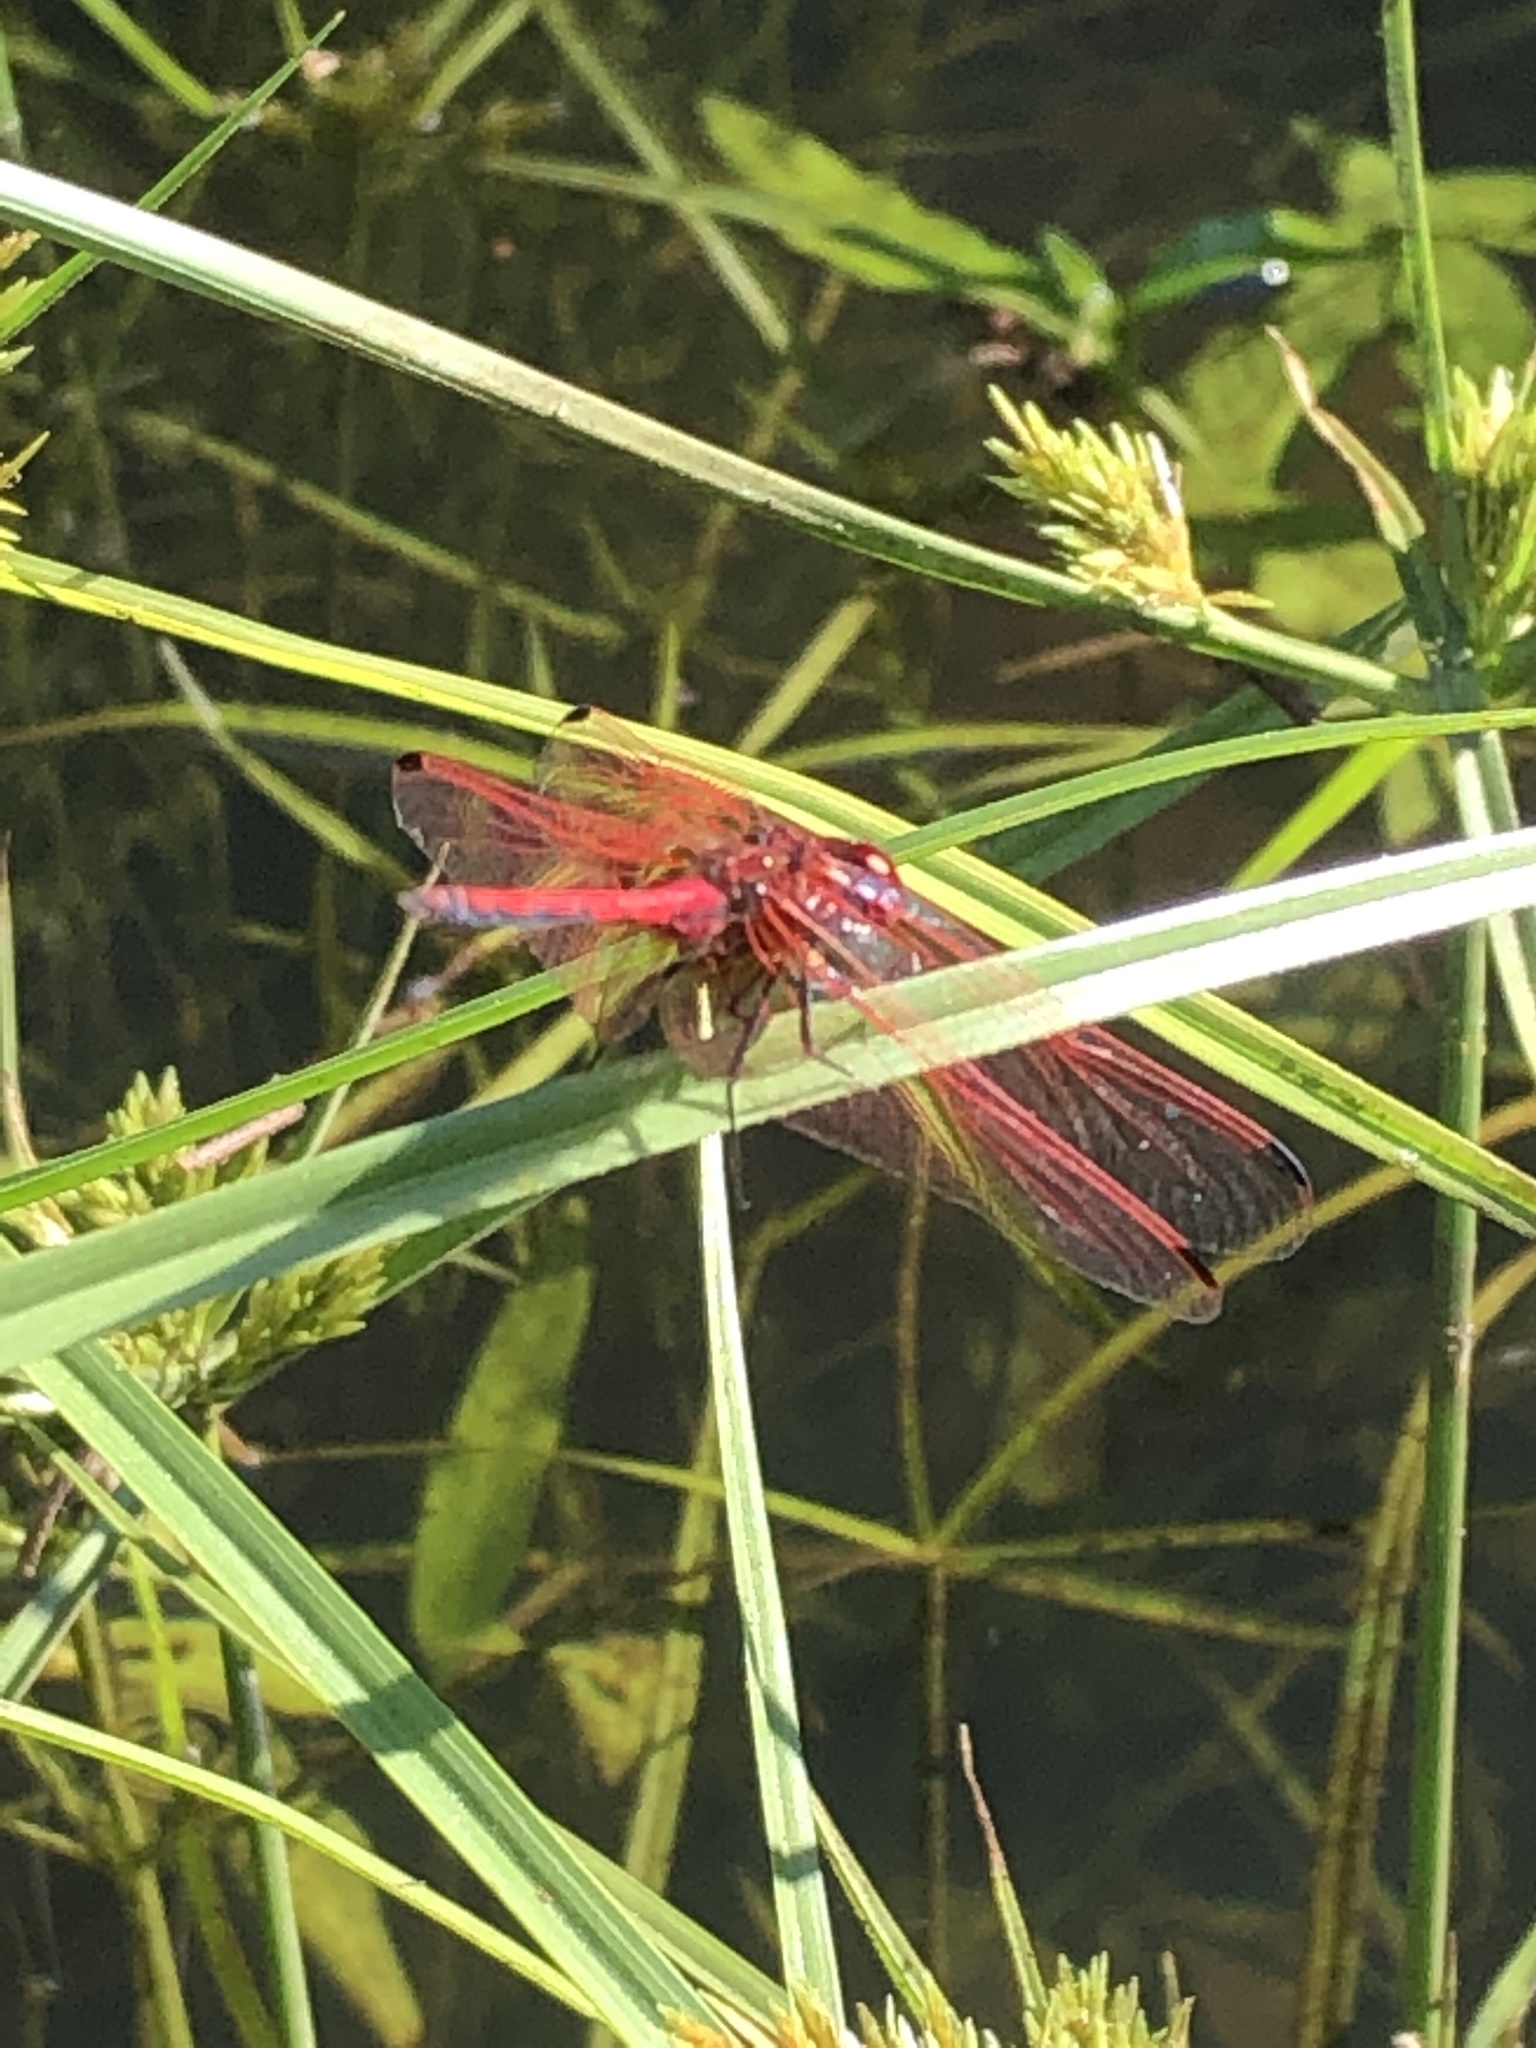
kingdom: Animalia
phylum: Arthropoda
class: Insecta
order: Odonata
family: Libellulidae
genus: Trithemis
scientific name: Trithemis arteriosa
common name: Red-veined dropwing
